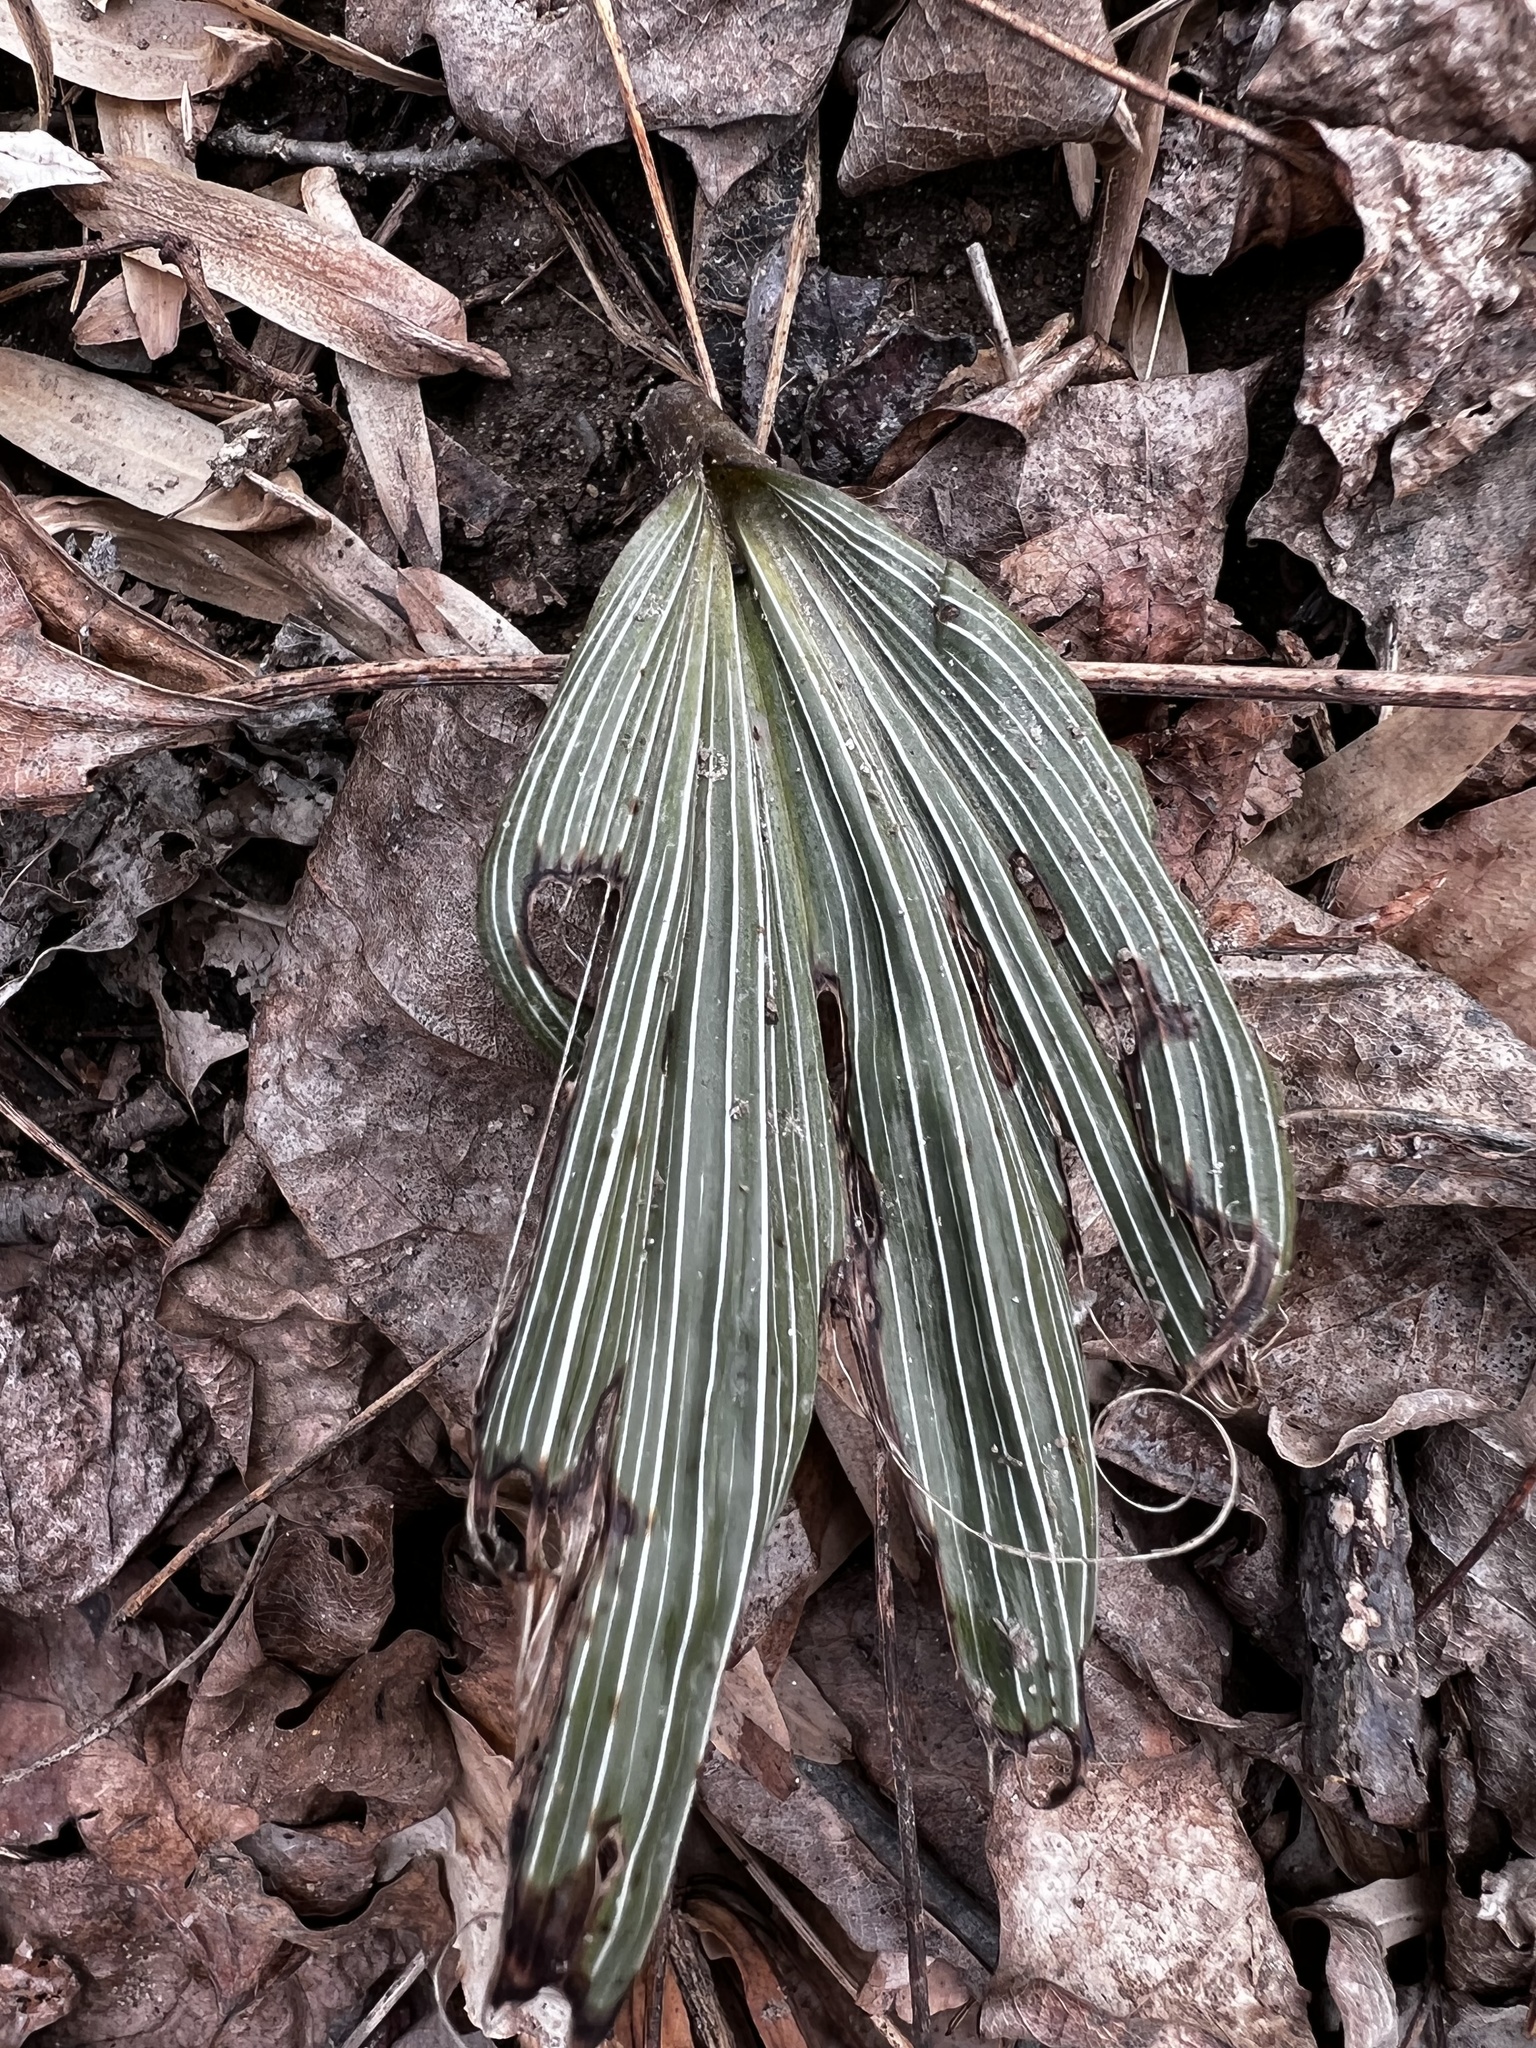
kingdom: Plantae
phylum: Tracheophyta
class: Liliopsida
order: Asparagales
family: Orchidaceae
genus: Aplectrum
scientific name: Aplectrum hyemale
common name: Adam-and-eve
